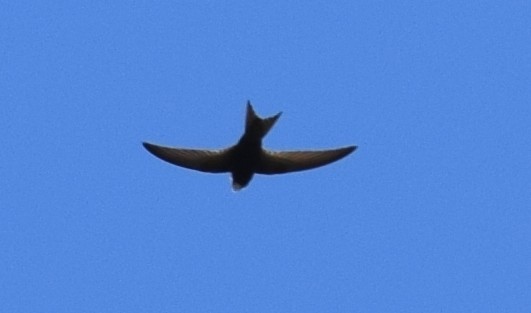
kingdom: Animalia
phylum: Chordata
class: Aves
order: Apodiformes
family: Apodidae
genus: Apus
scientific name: Apus apus
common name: Common swift
